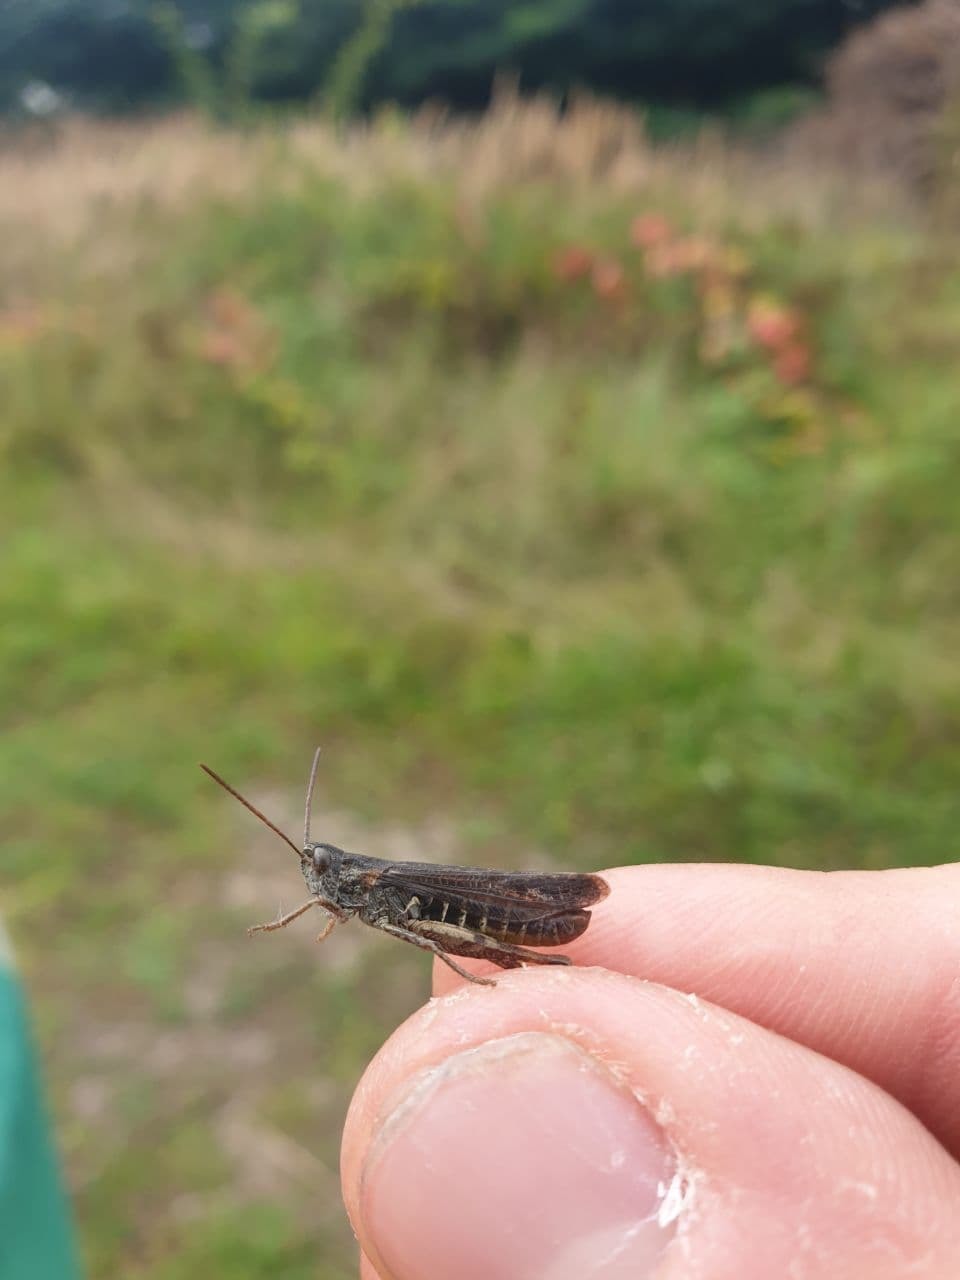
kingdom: Animalia
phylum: Arthropoda
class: Insecta
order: Orthoptera
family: Acrididae
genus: Chorthippus
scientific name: Chorthippus biguttulus
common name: Bow-winged grasshopper
